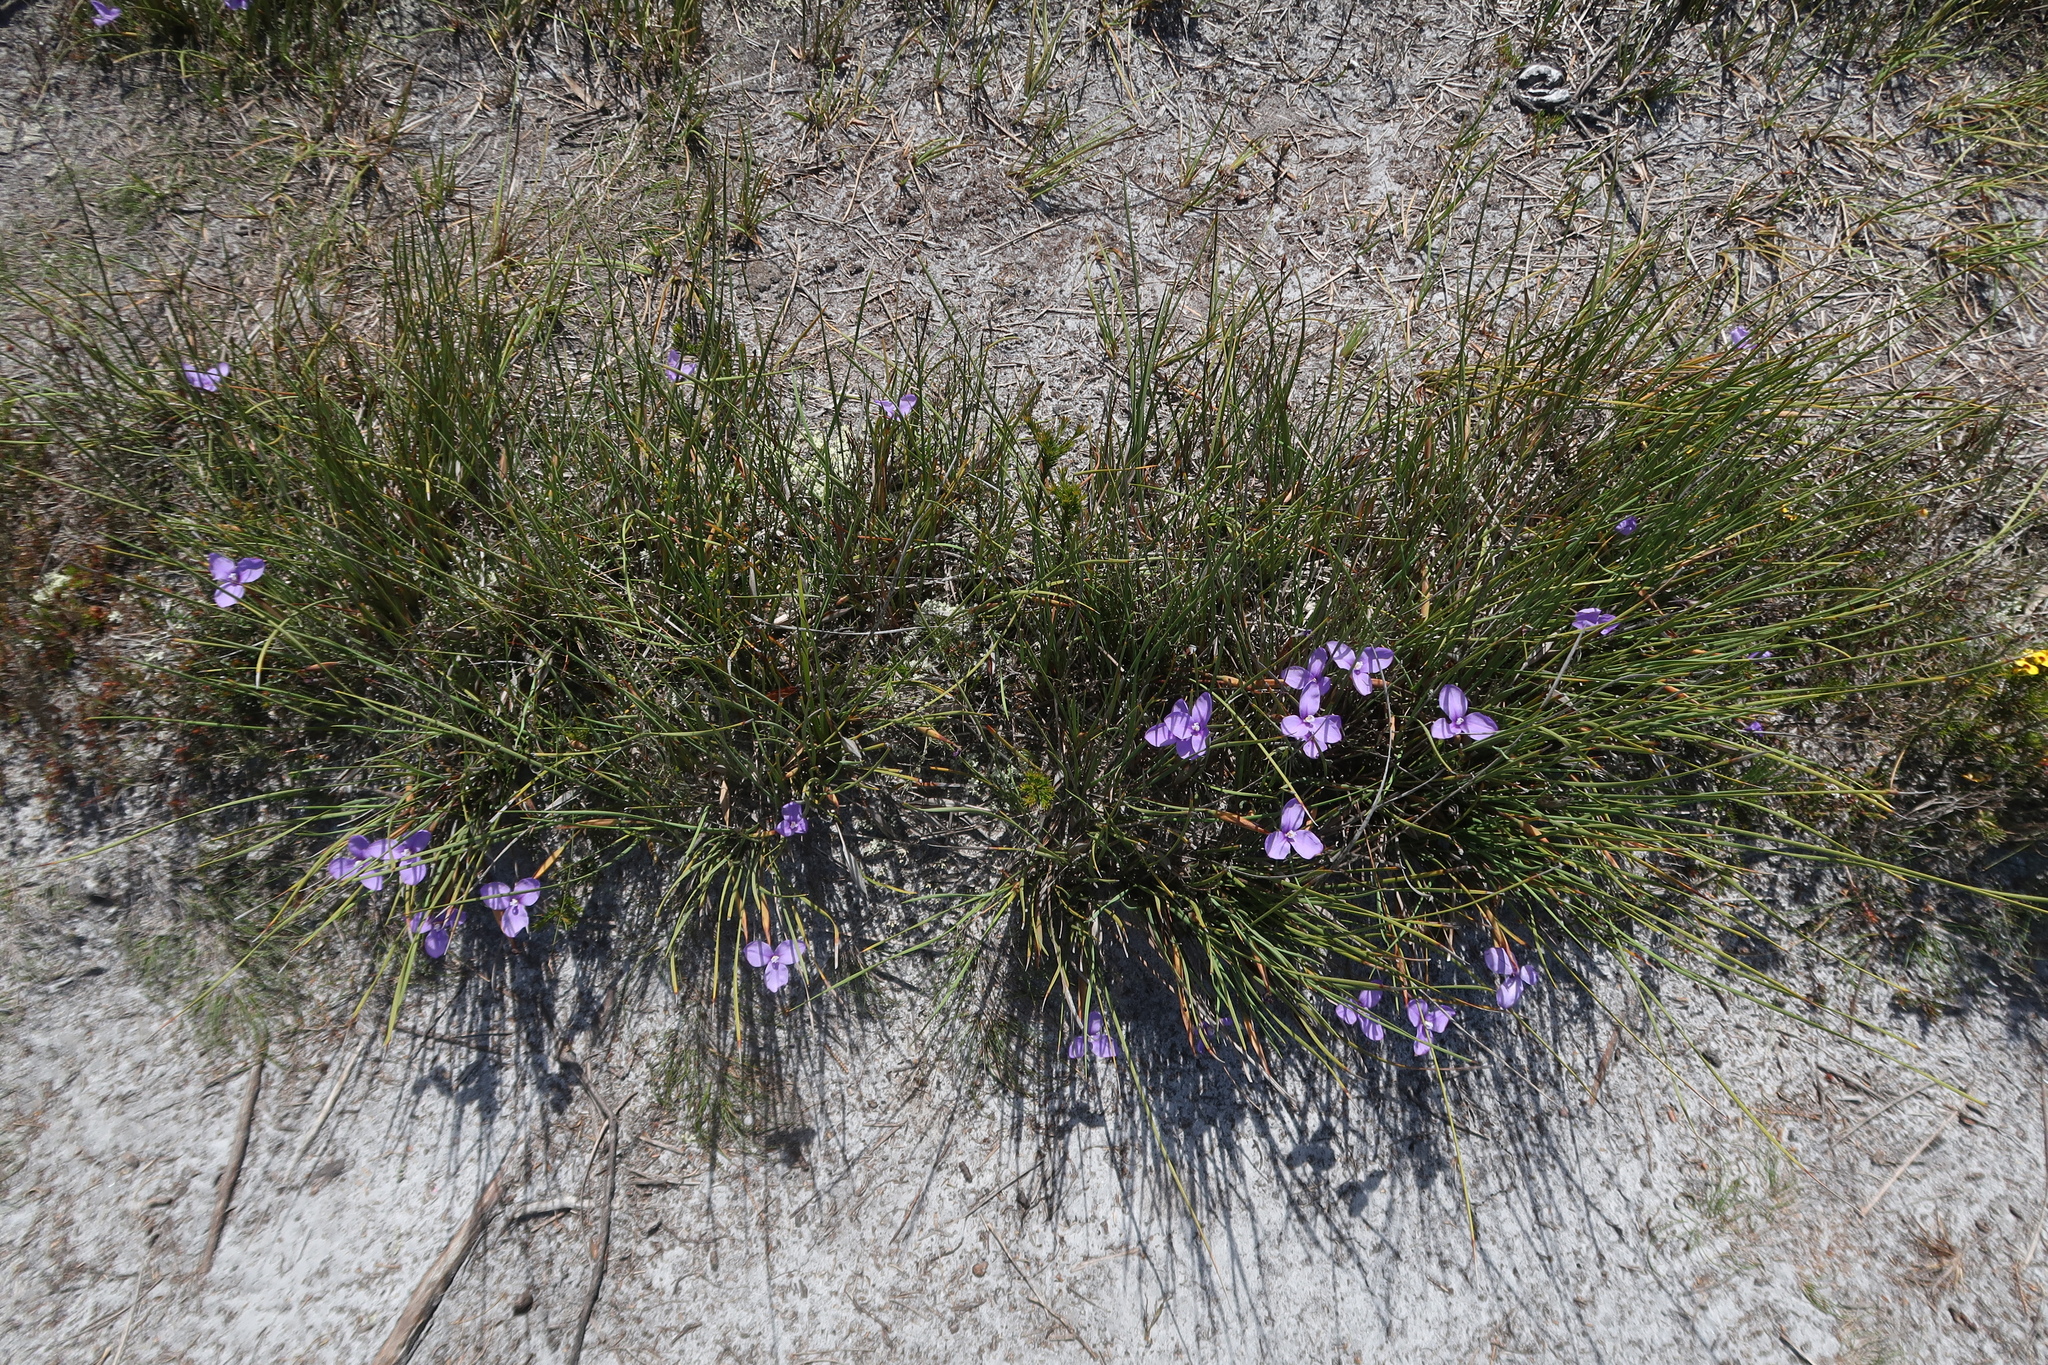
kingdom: Plantae
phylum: Tracheophyta
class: Liliopsida
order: Asparagales
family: Iridaceae
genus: Patersonia
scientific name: Patersonia fragilis
